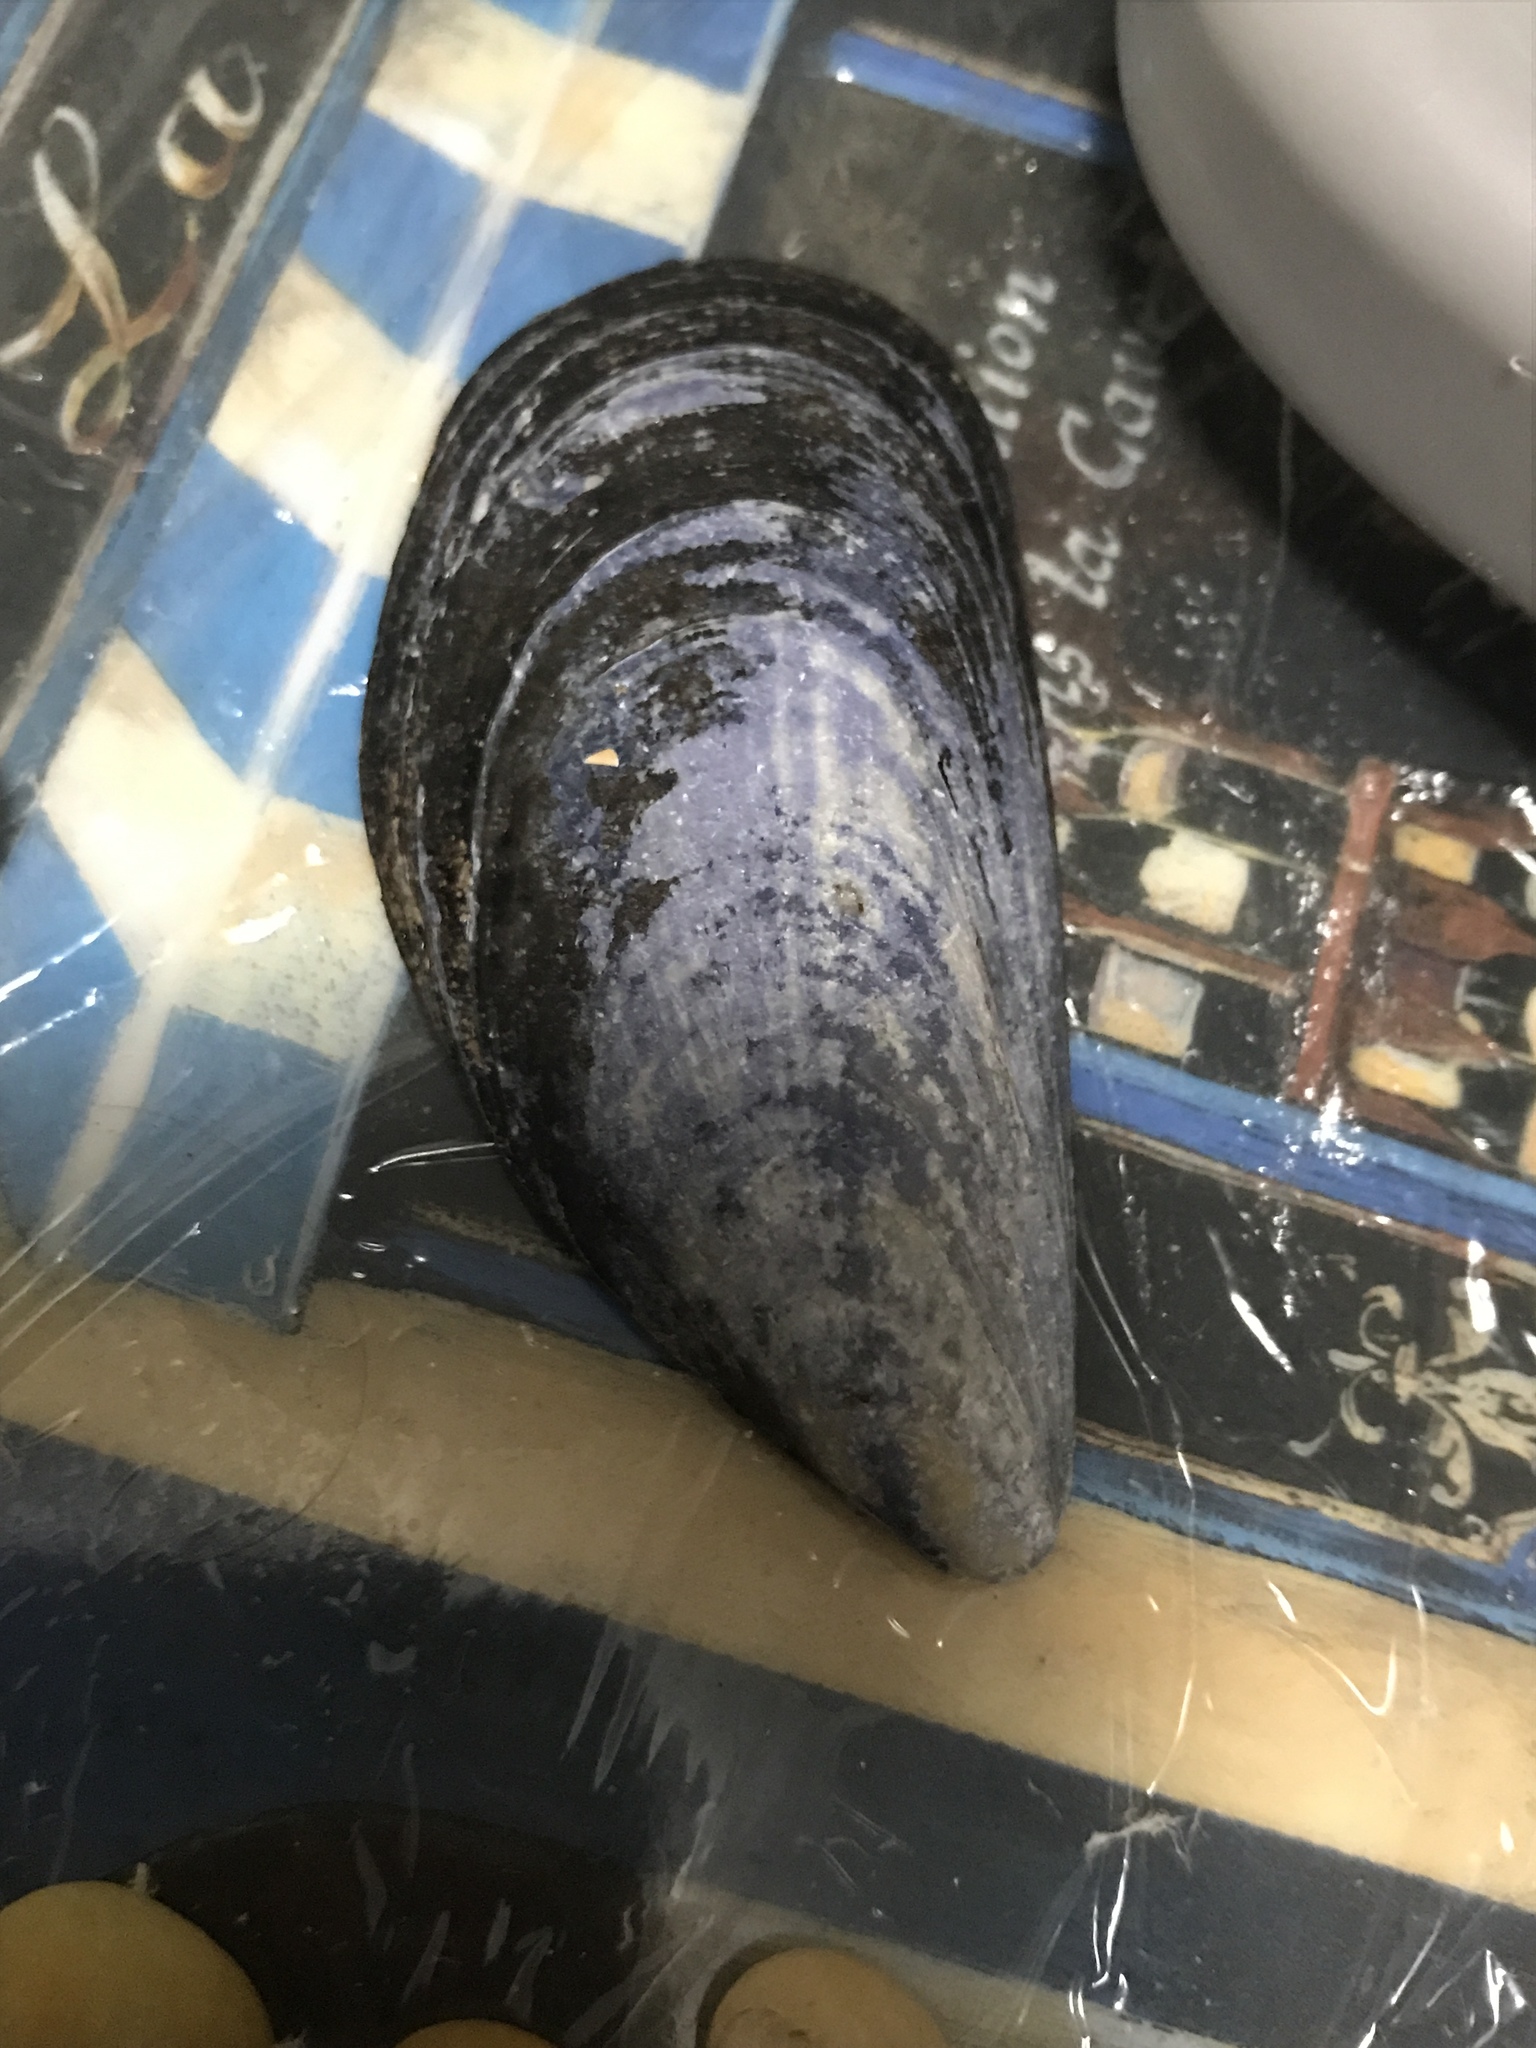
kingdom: Animalia
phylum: Mollusca
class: Bivalvia
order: Mytilida
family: Mytilidae
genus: Mytilus
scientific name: Mytilus edulis
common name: Blue mussel
